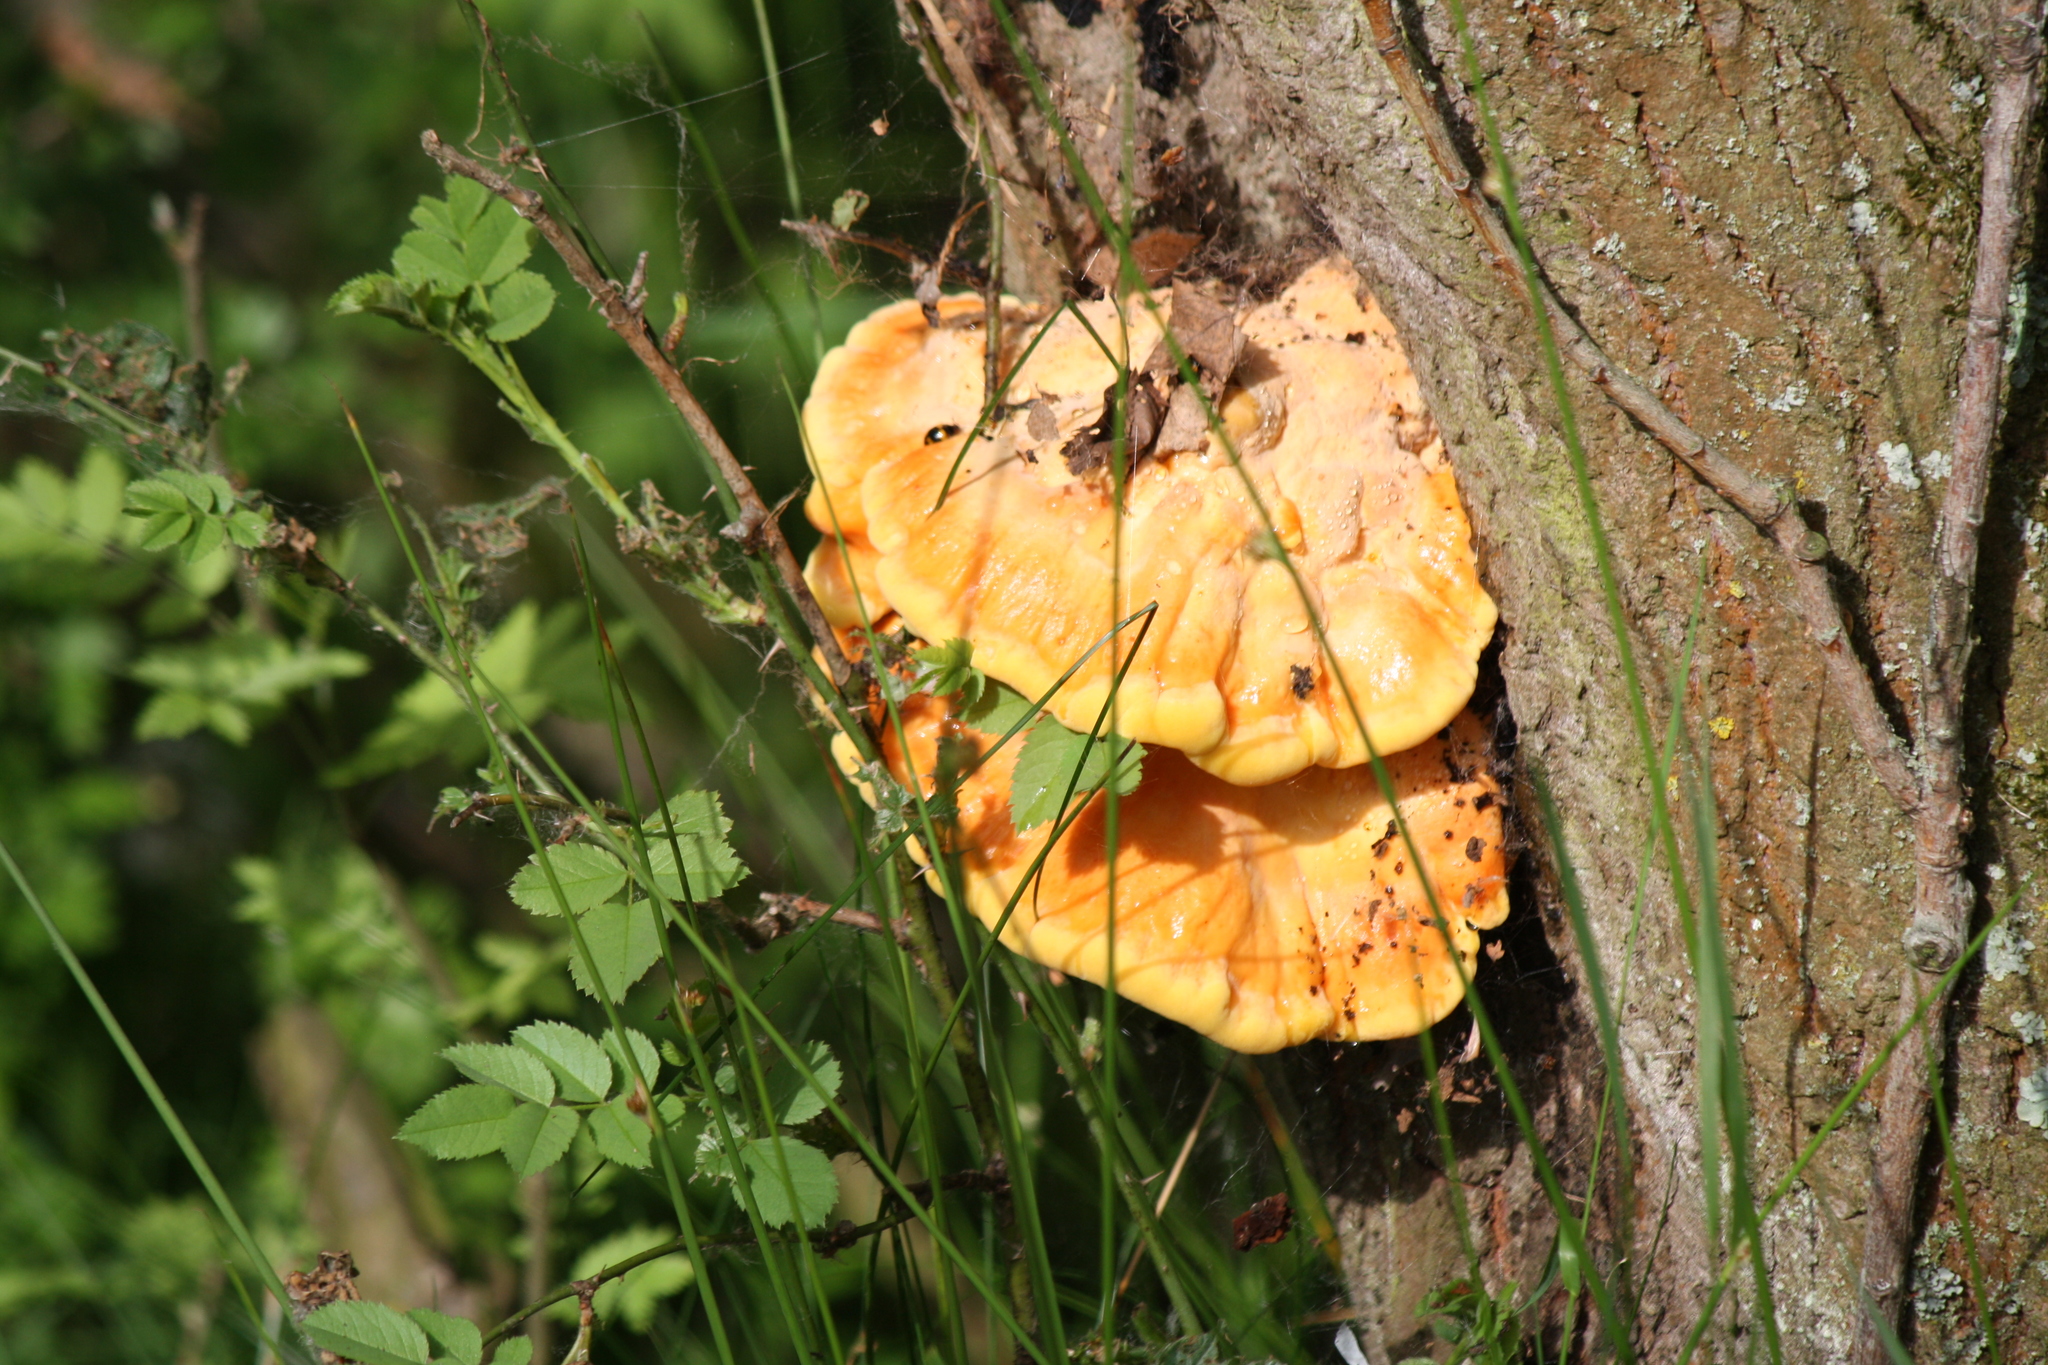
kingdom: Fungi
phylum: Basidiomycota
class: Agaricomycetes
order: Polyporales
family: Laetiporaceae
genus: Laetiporus
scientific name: Laetiporus sulphureus
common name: Chicken of the woods
